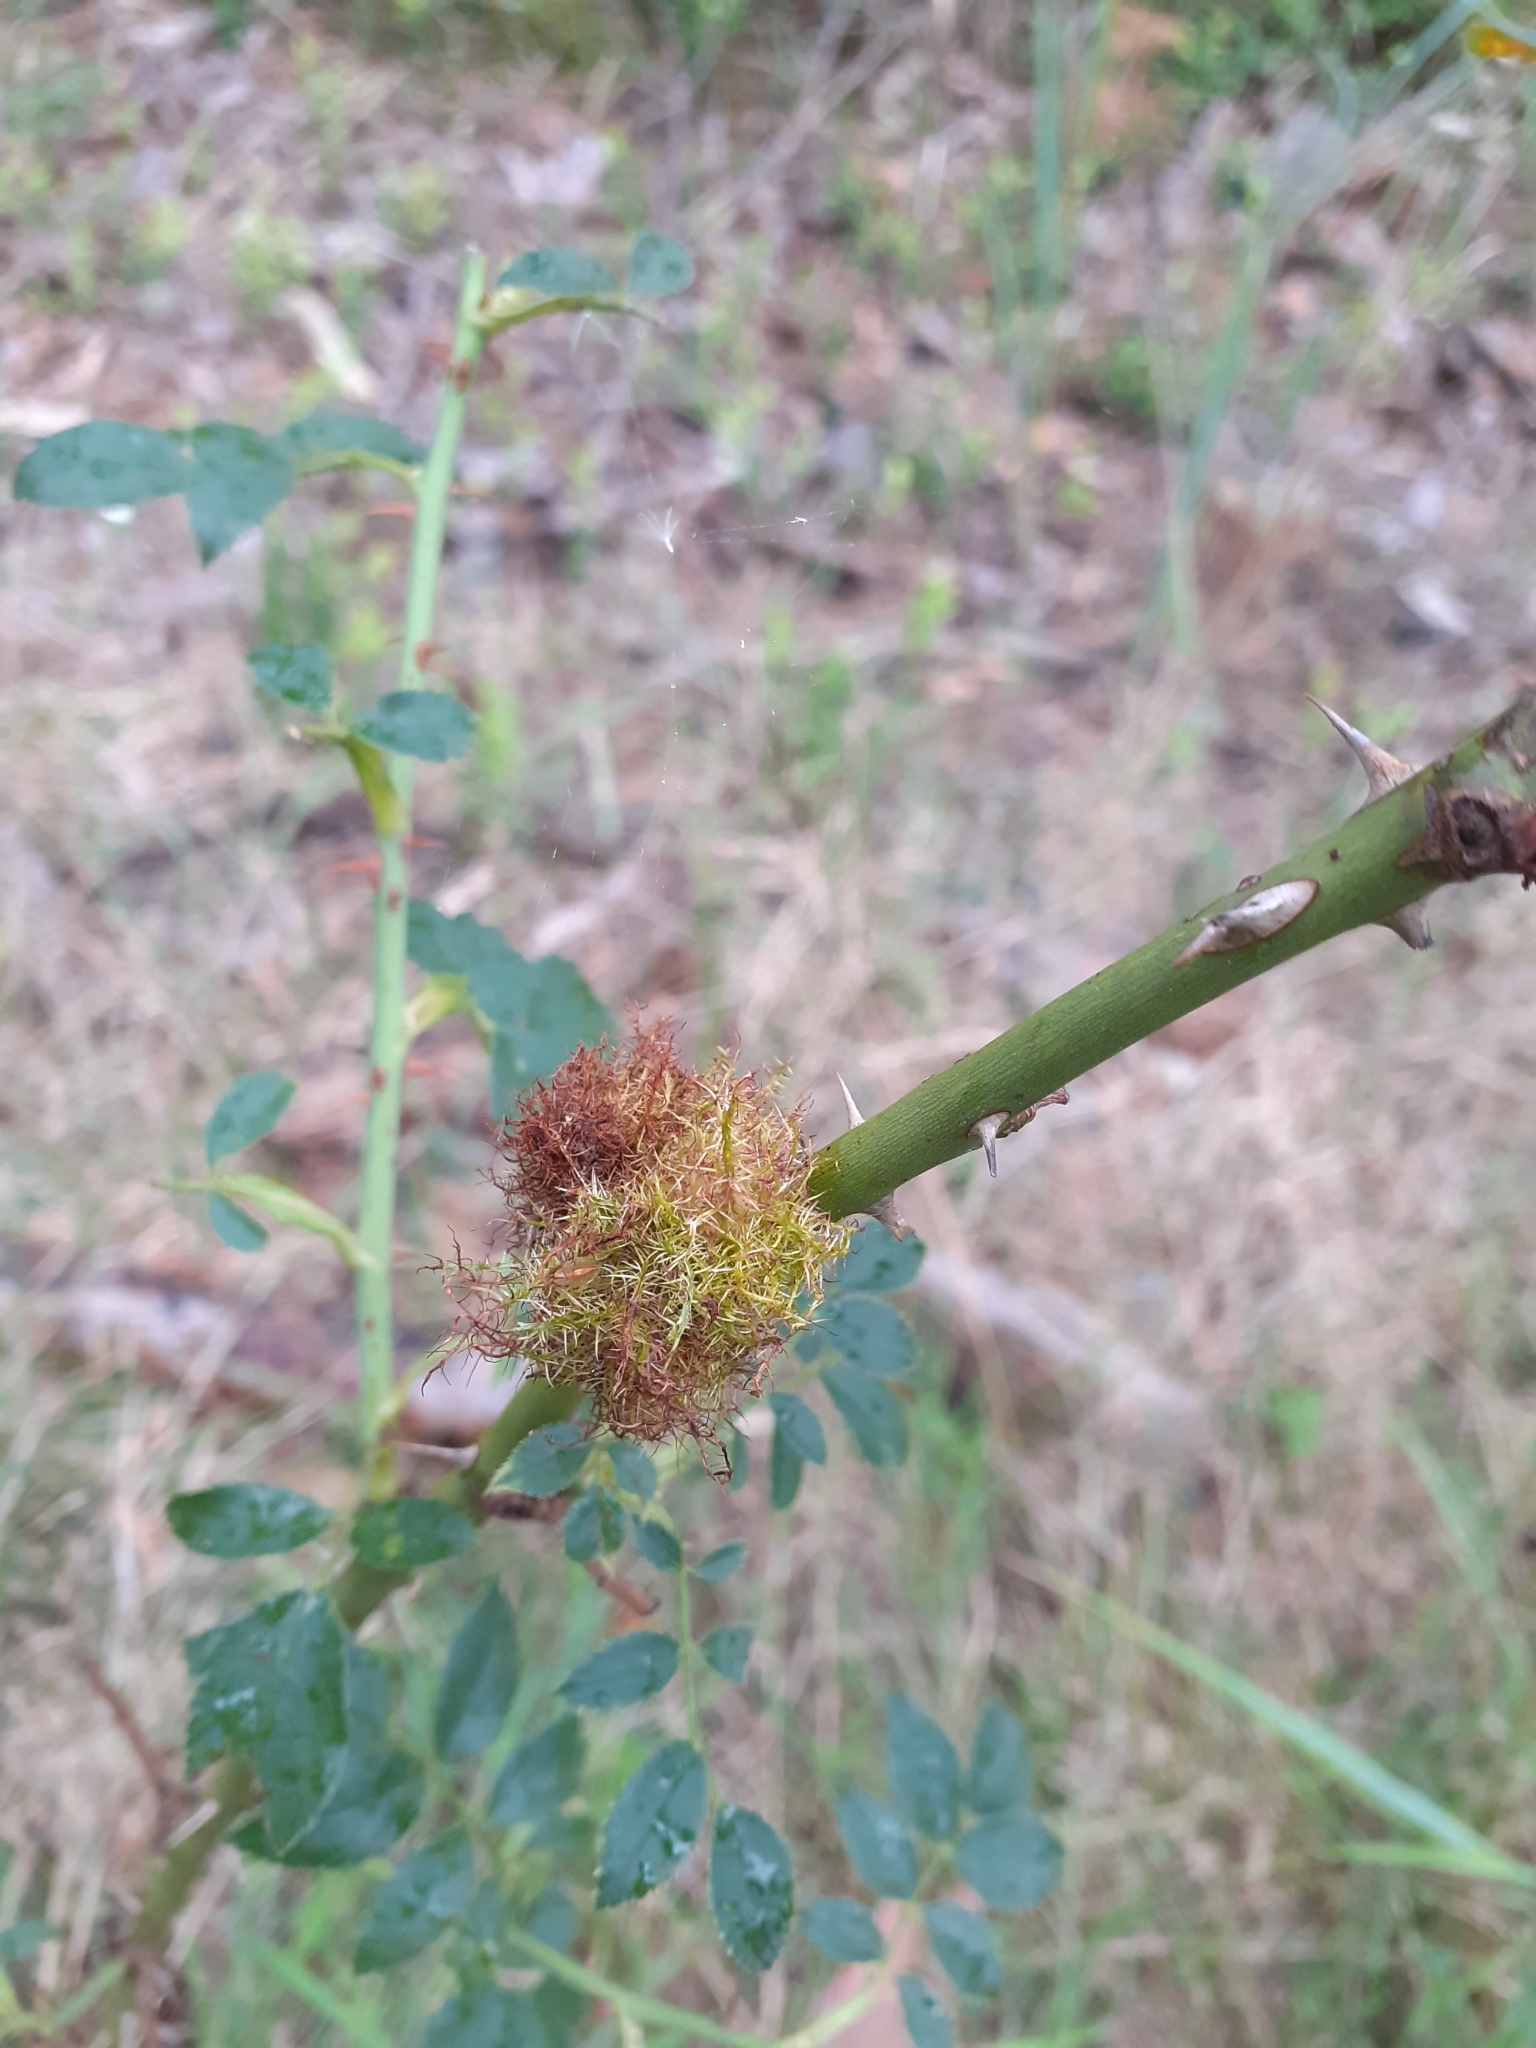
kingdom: Animalia
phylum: Arthropoda
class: Insecta
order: Hymenoptera
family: Cynipidae
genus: Diplolepis
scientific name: Diplolepis rosae
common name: Bedeguar gall
